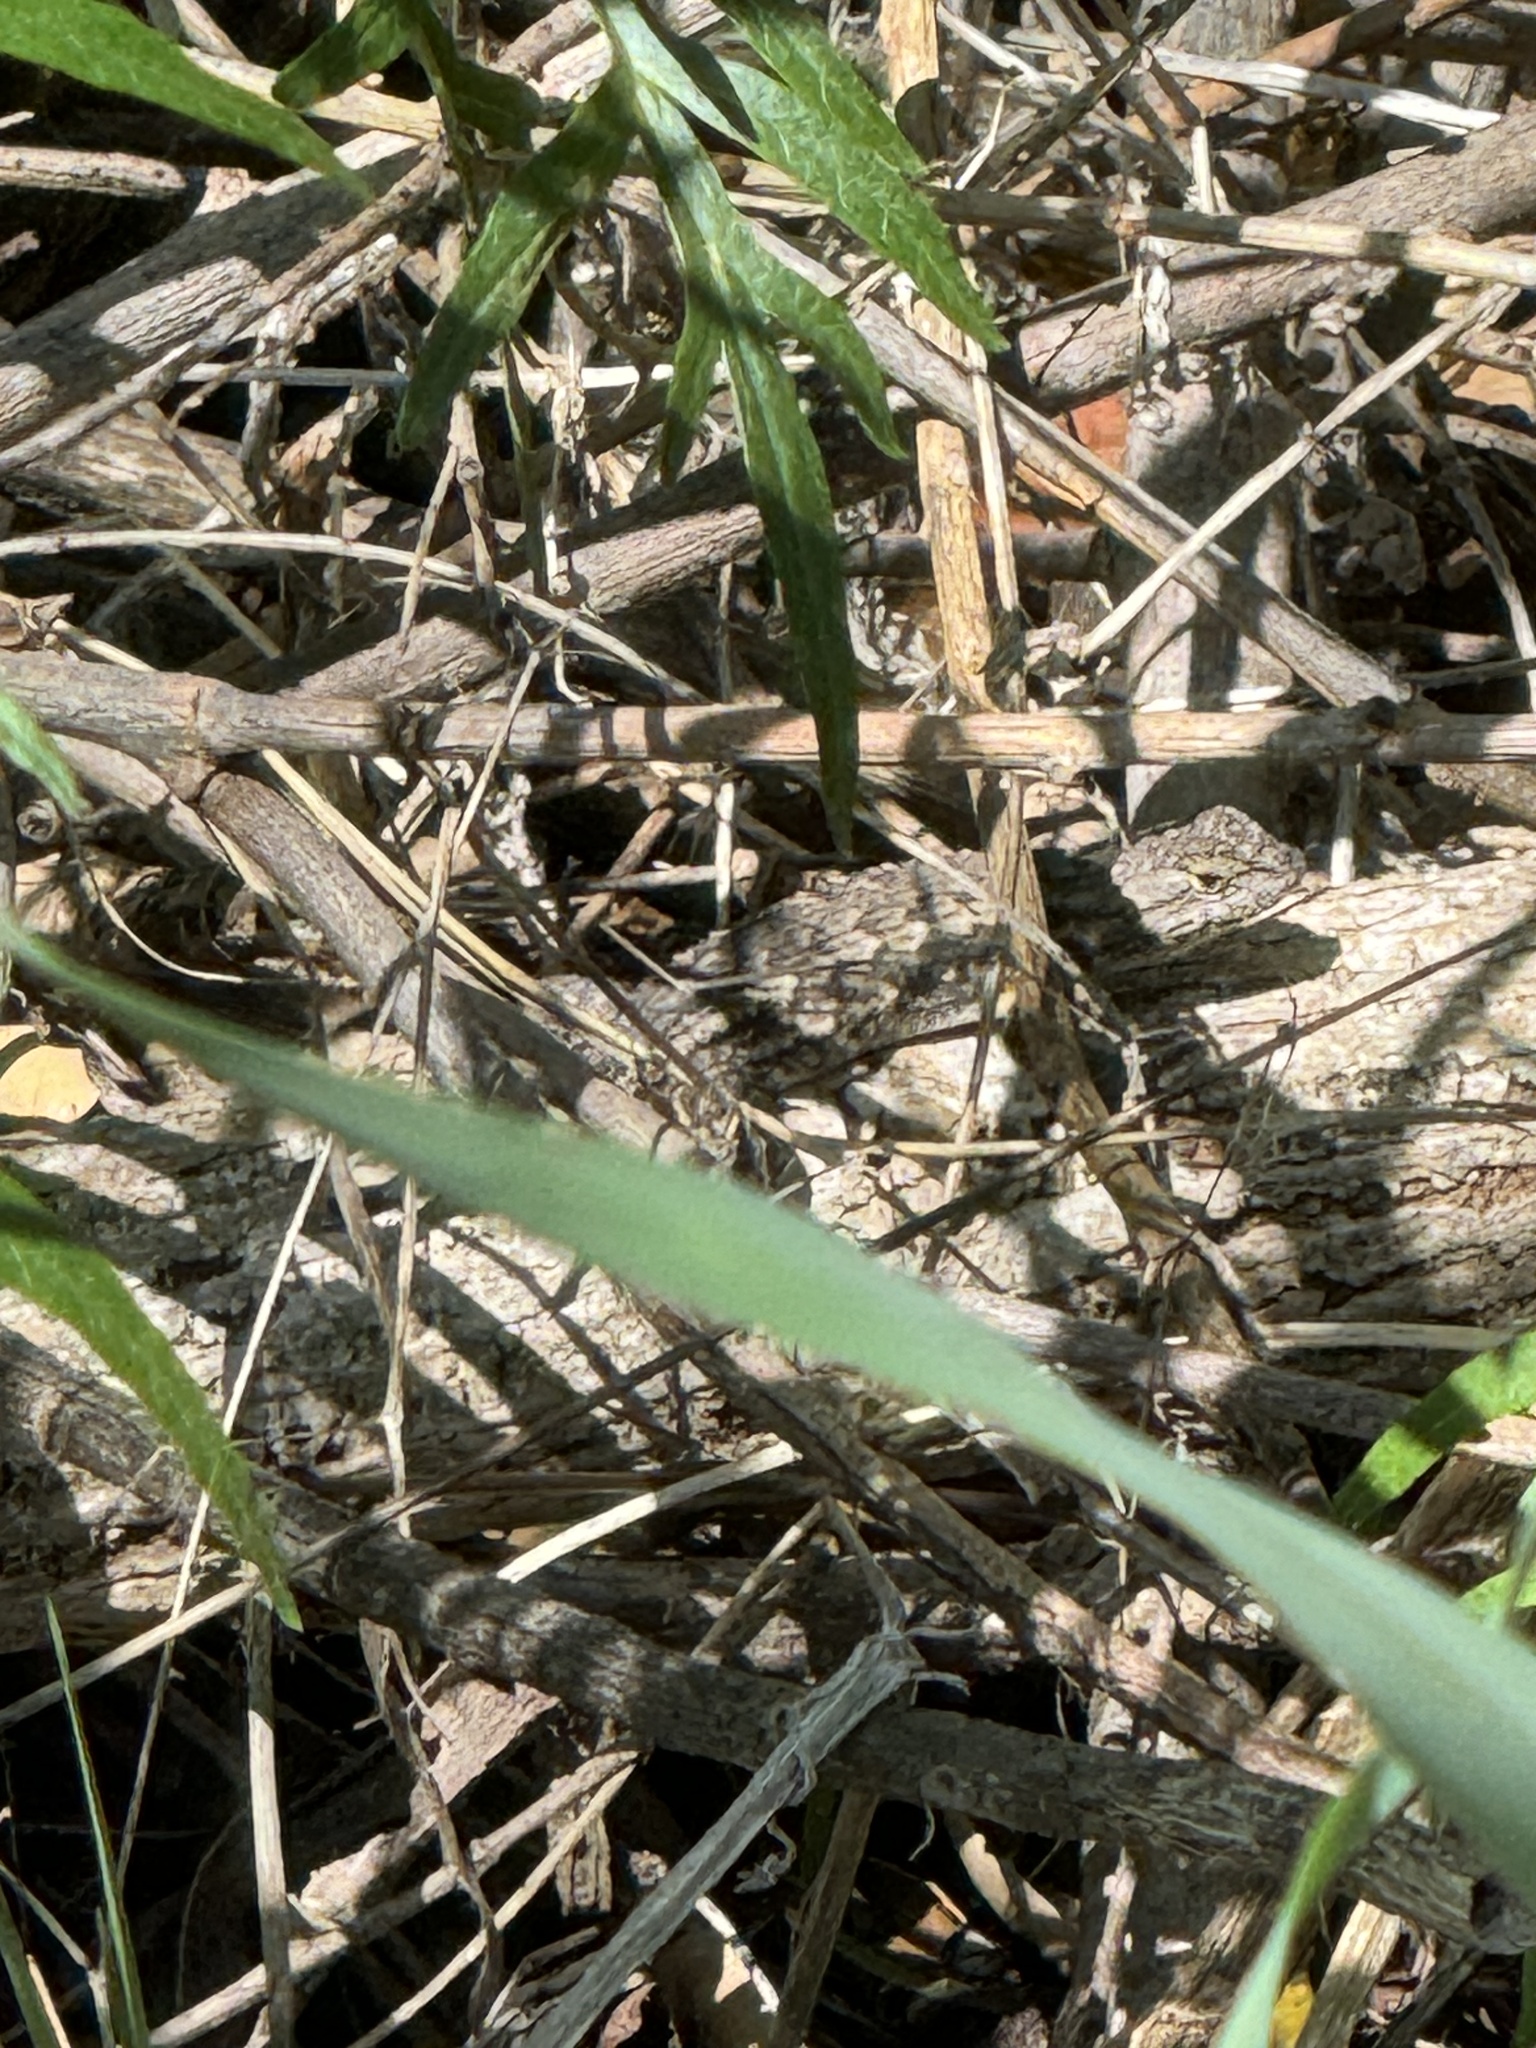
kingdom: Animalia
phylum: Chordata
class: Squamata
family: Phrynosomatidae
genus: Sceloporus
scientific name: Sceloporus occidentalis
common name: Western fence lizard
